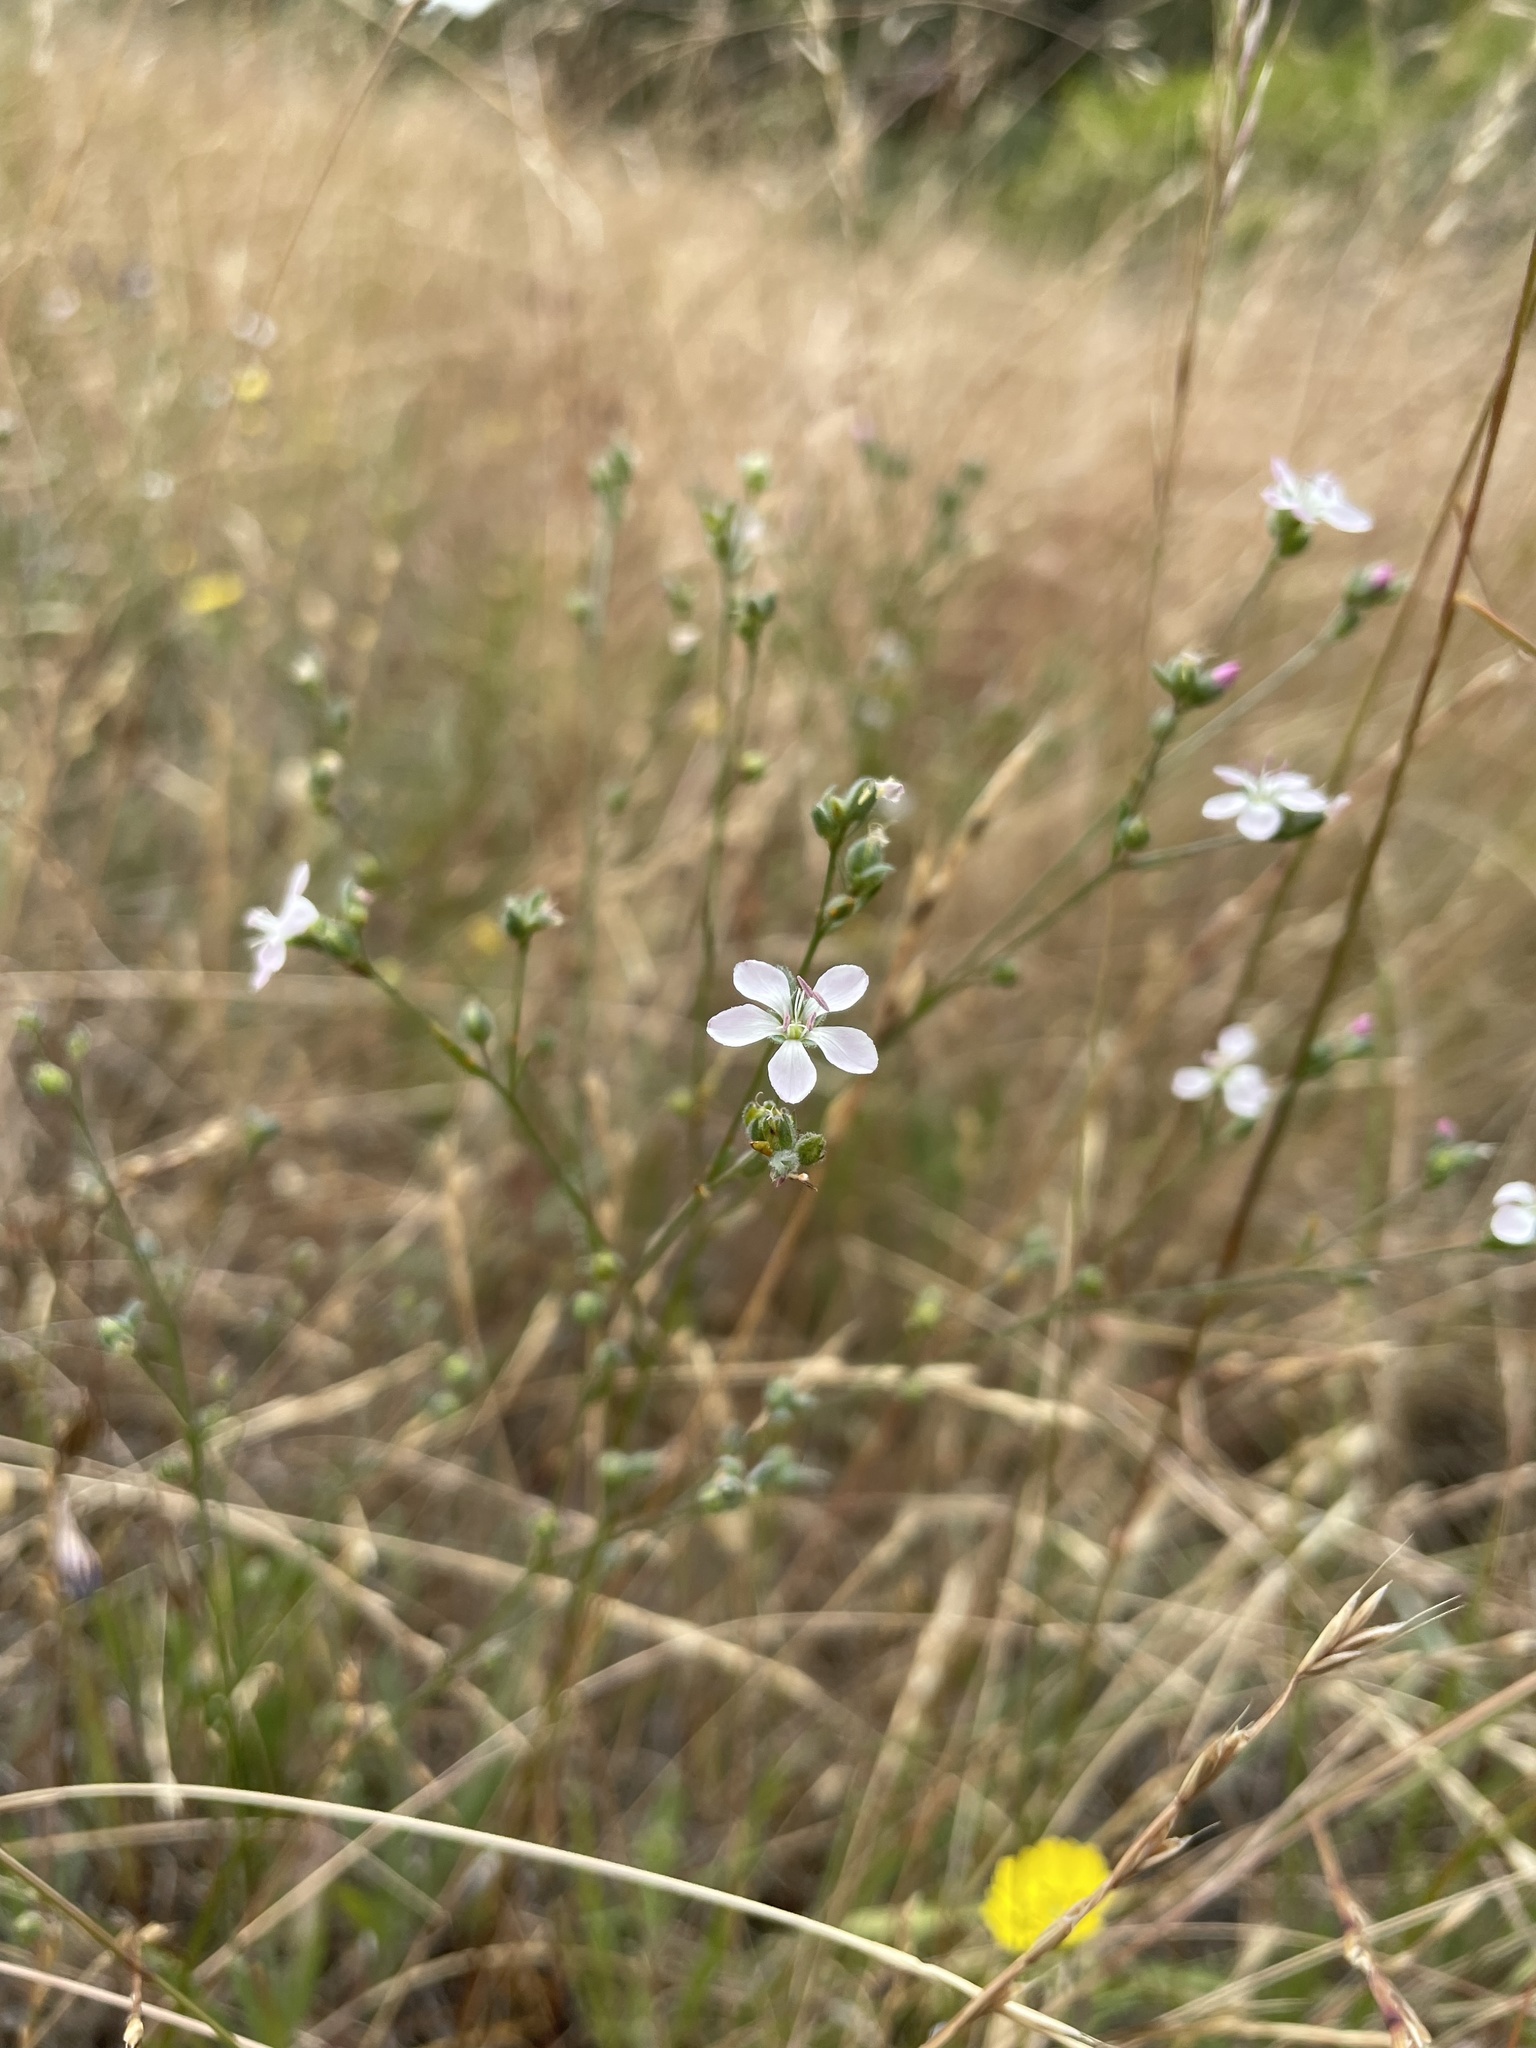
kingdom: Plantae
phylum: Tracheophyta
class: Magnoliopsida
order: Malpighiales
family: Linaceae
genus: Hesperolinon
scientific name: Hesperolinon congestum
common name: Marin dwarf-flax
